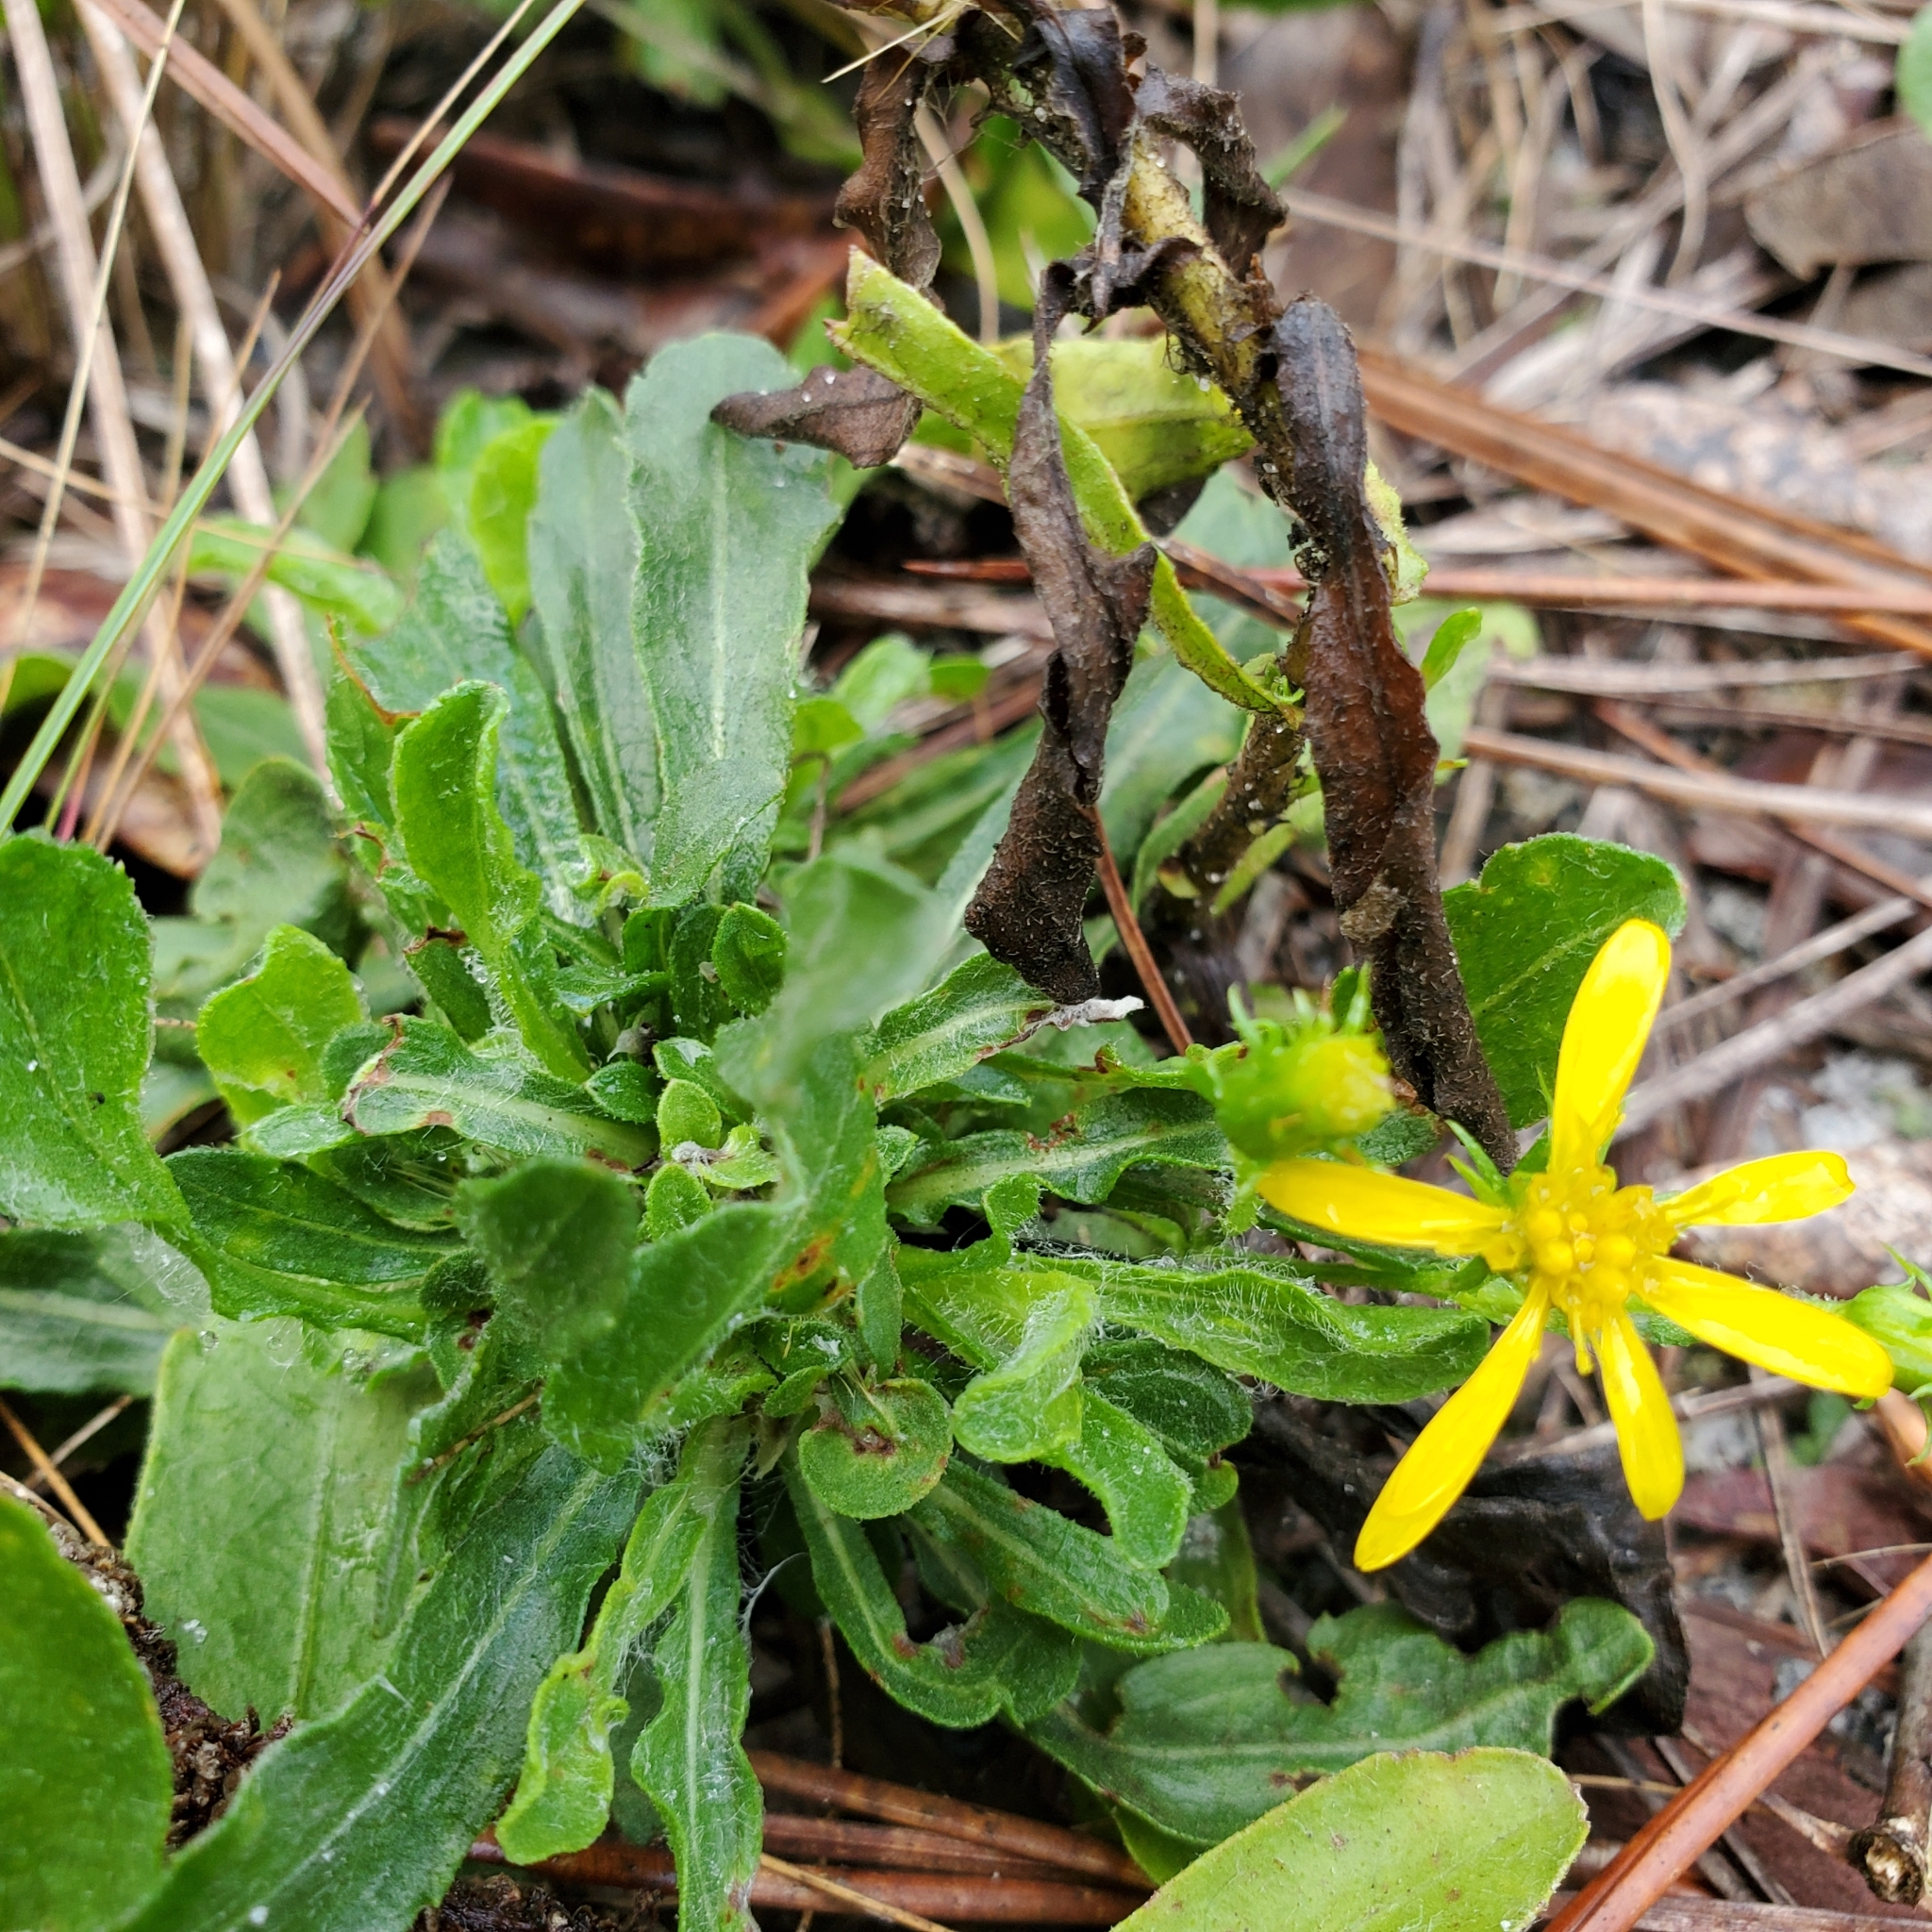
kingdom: Plantae
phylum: Tracheophyta
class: Magnoliopsida
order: Asterales
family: Asteraceae
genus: Chrysopsis
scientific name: Chrysopsis subulata
